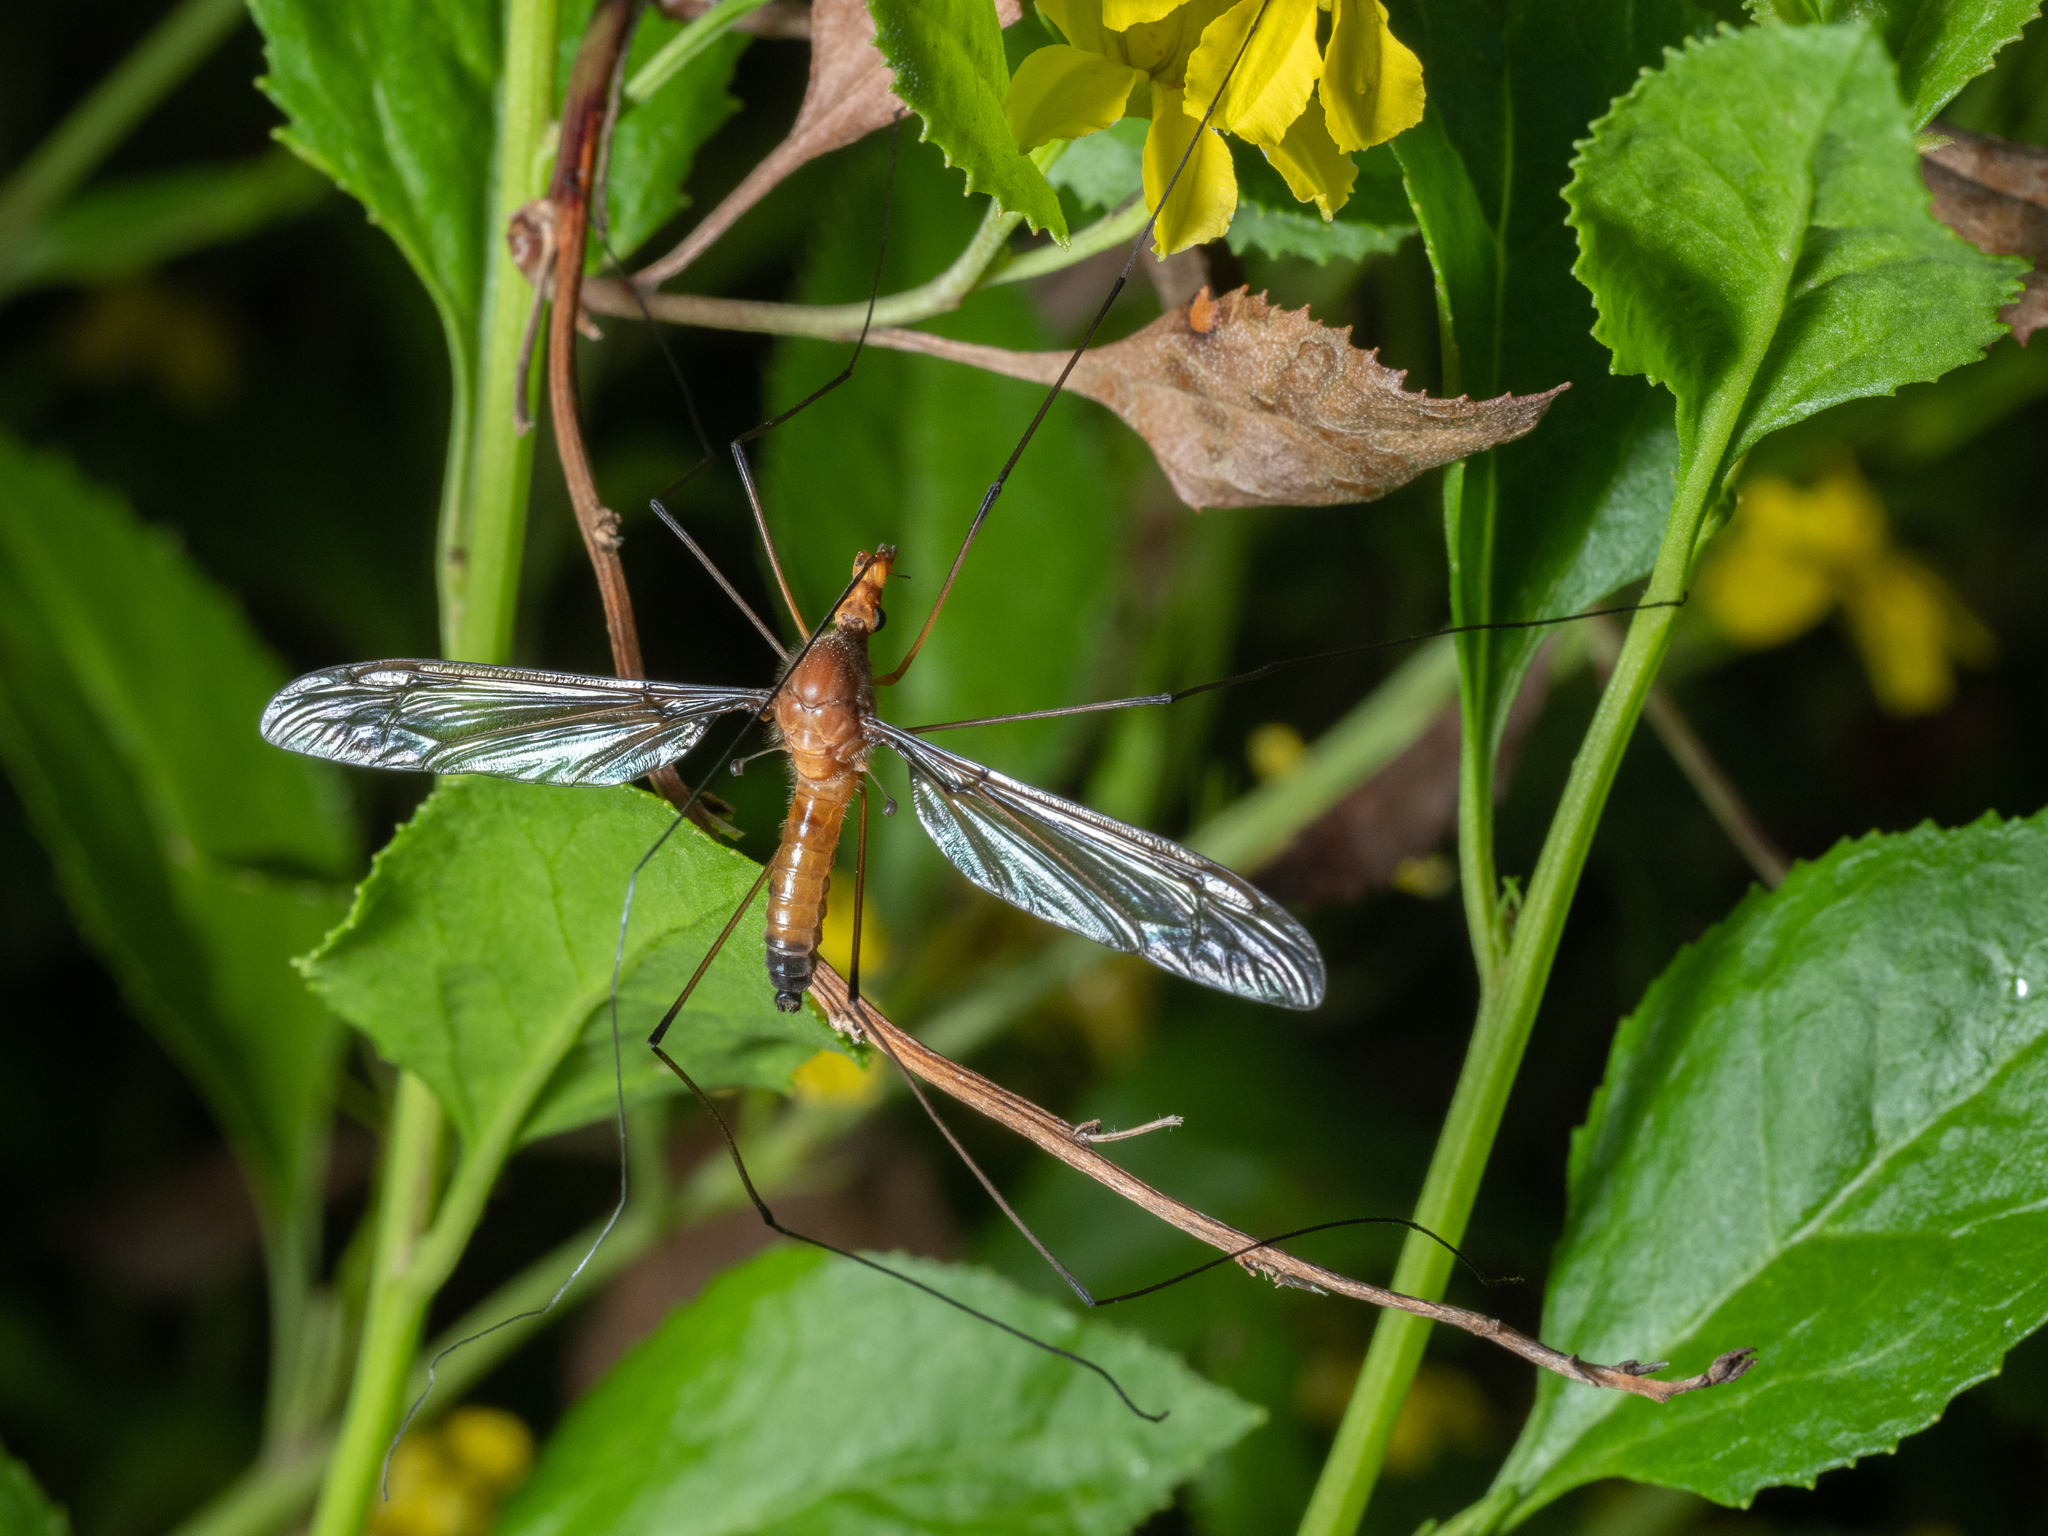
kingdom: Animalia
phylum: Arthropoda
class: Insecta
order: Diptera
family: Tipulidae
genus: Leptotarsus
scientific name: Leptotarsus costalis
